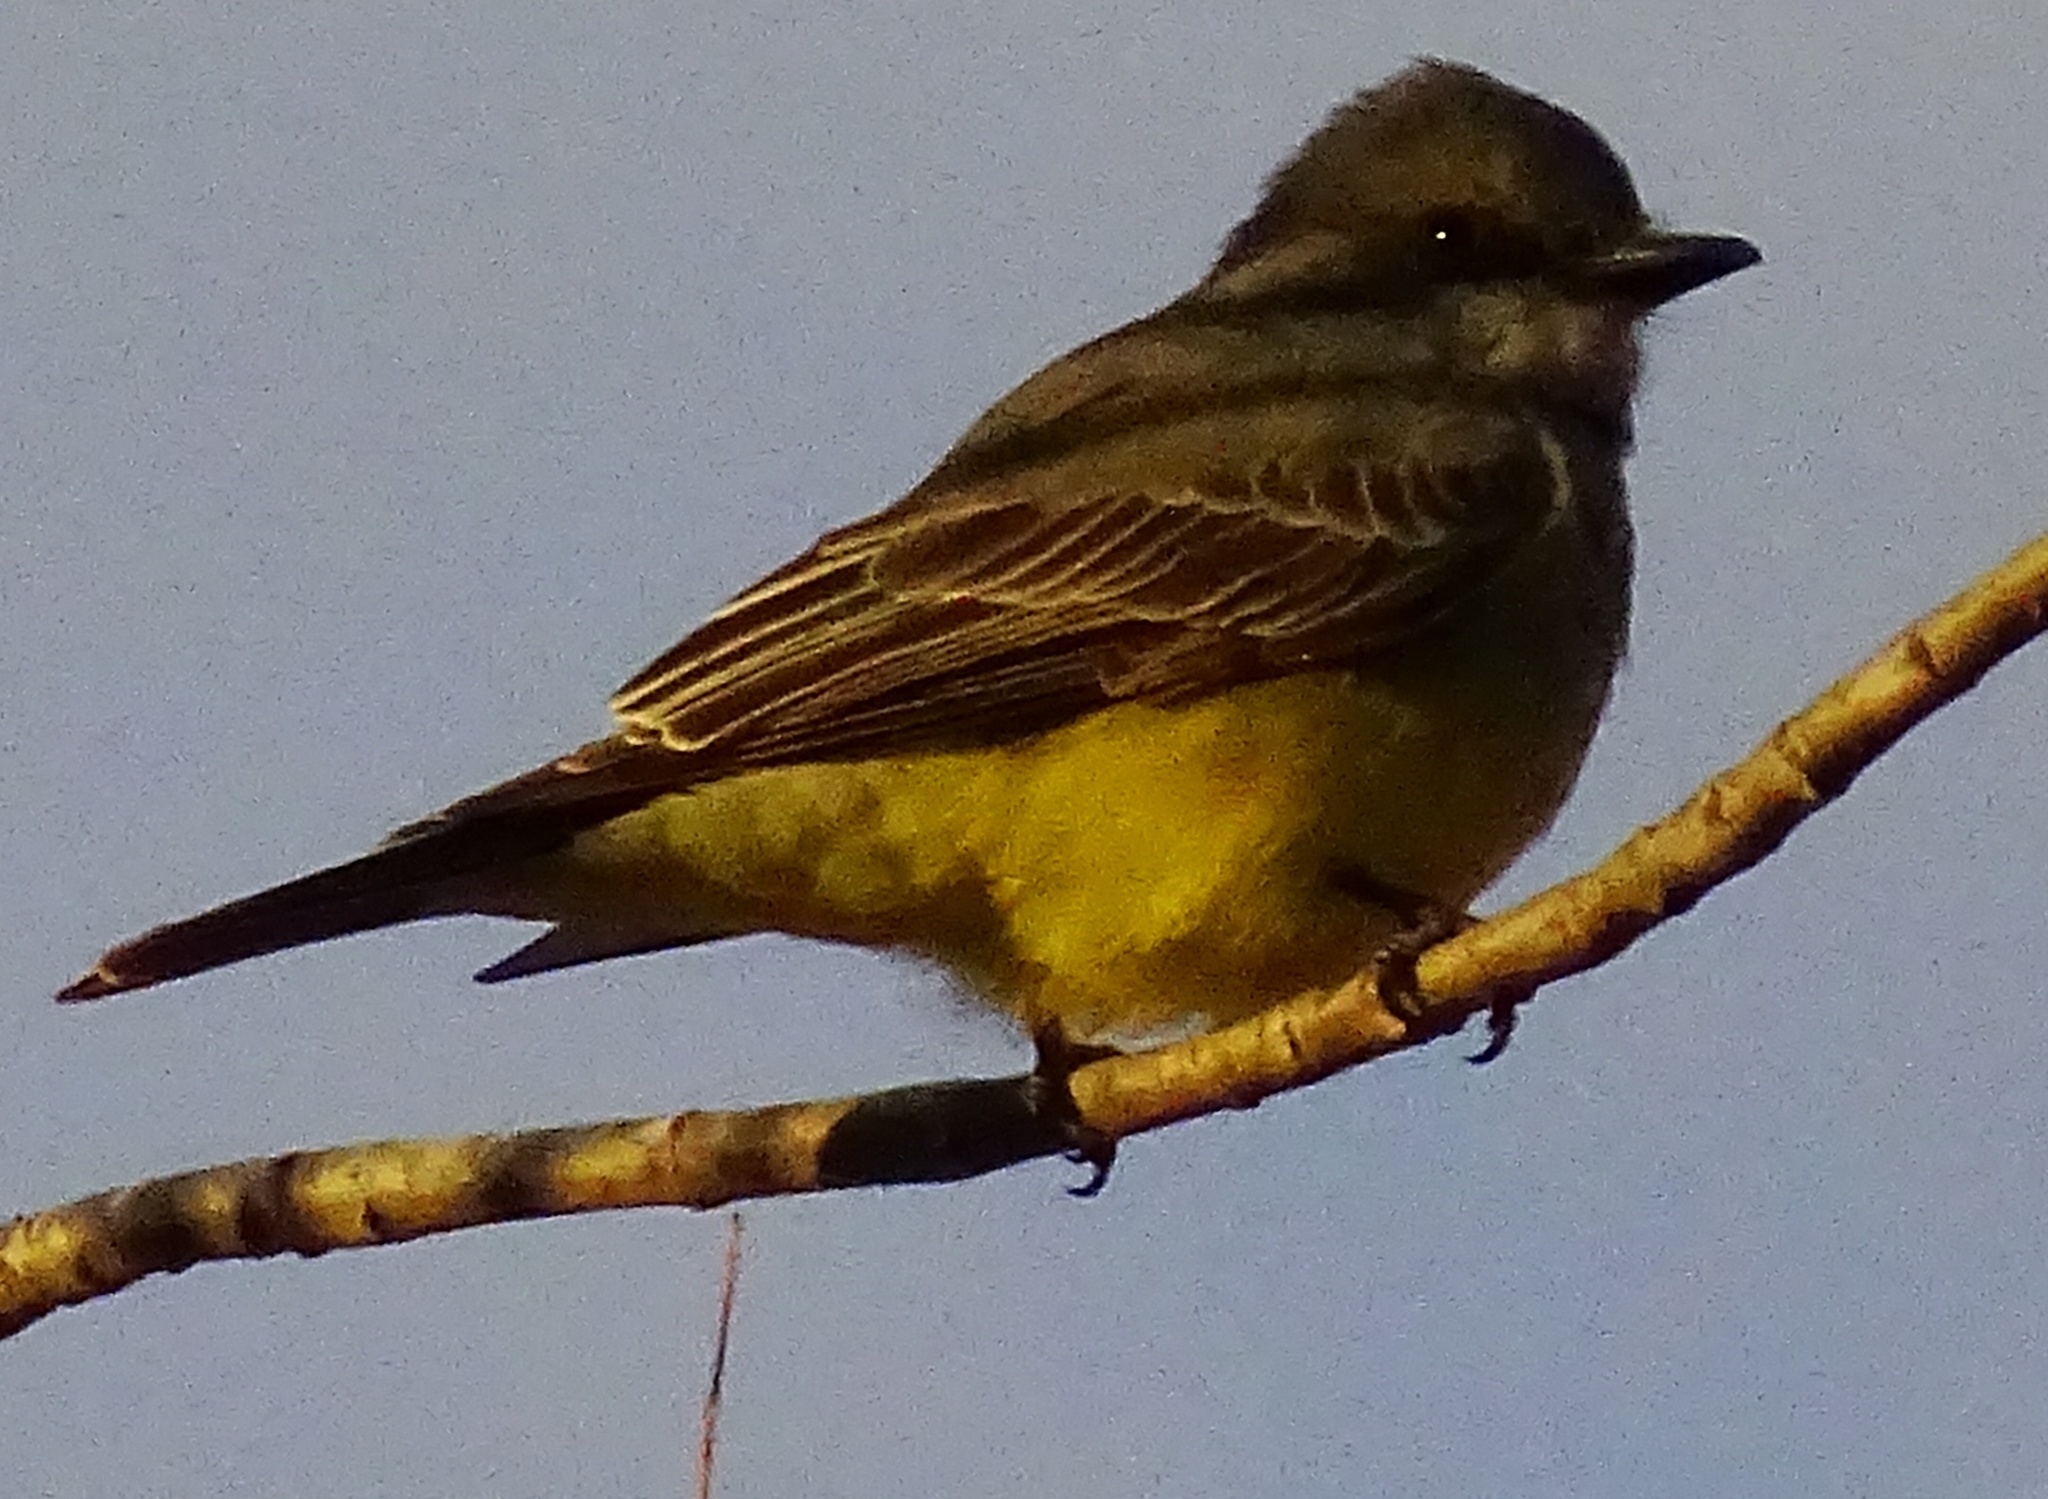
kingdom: Animalia
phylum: Chordata
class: Aves
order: Passeriformes
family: Tyrannidae
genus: Tyrannus
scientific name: Tyrannus vociferans
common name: Cassin's kingbird
